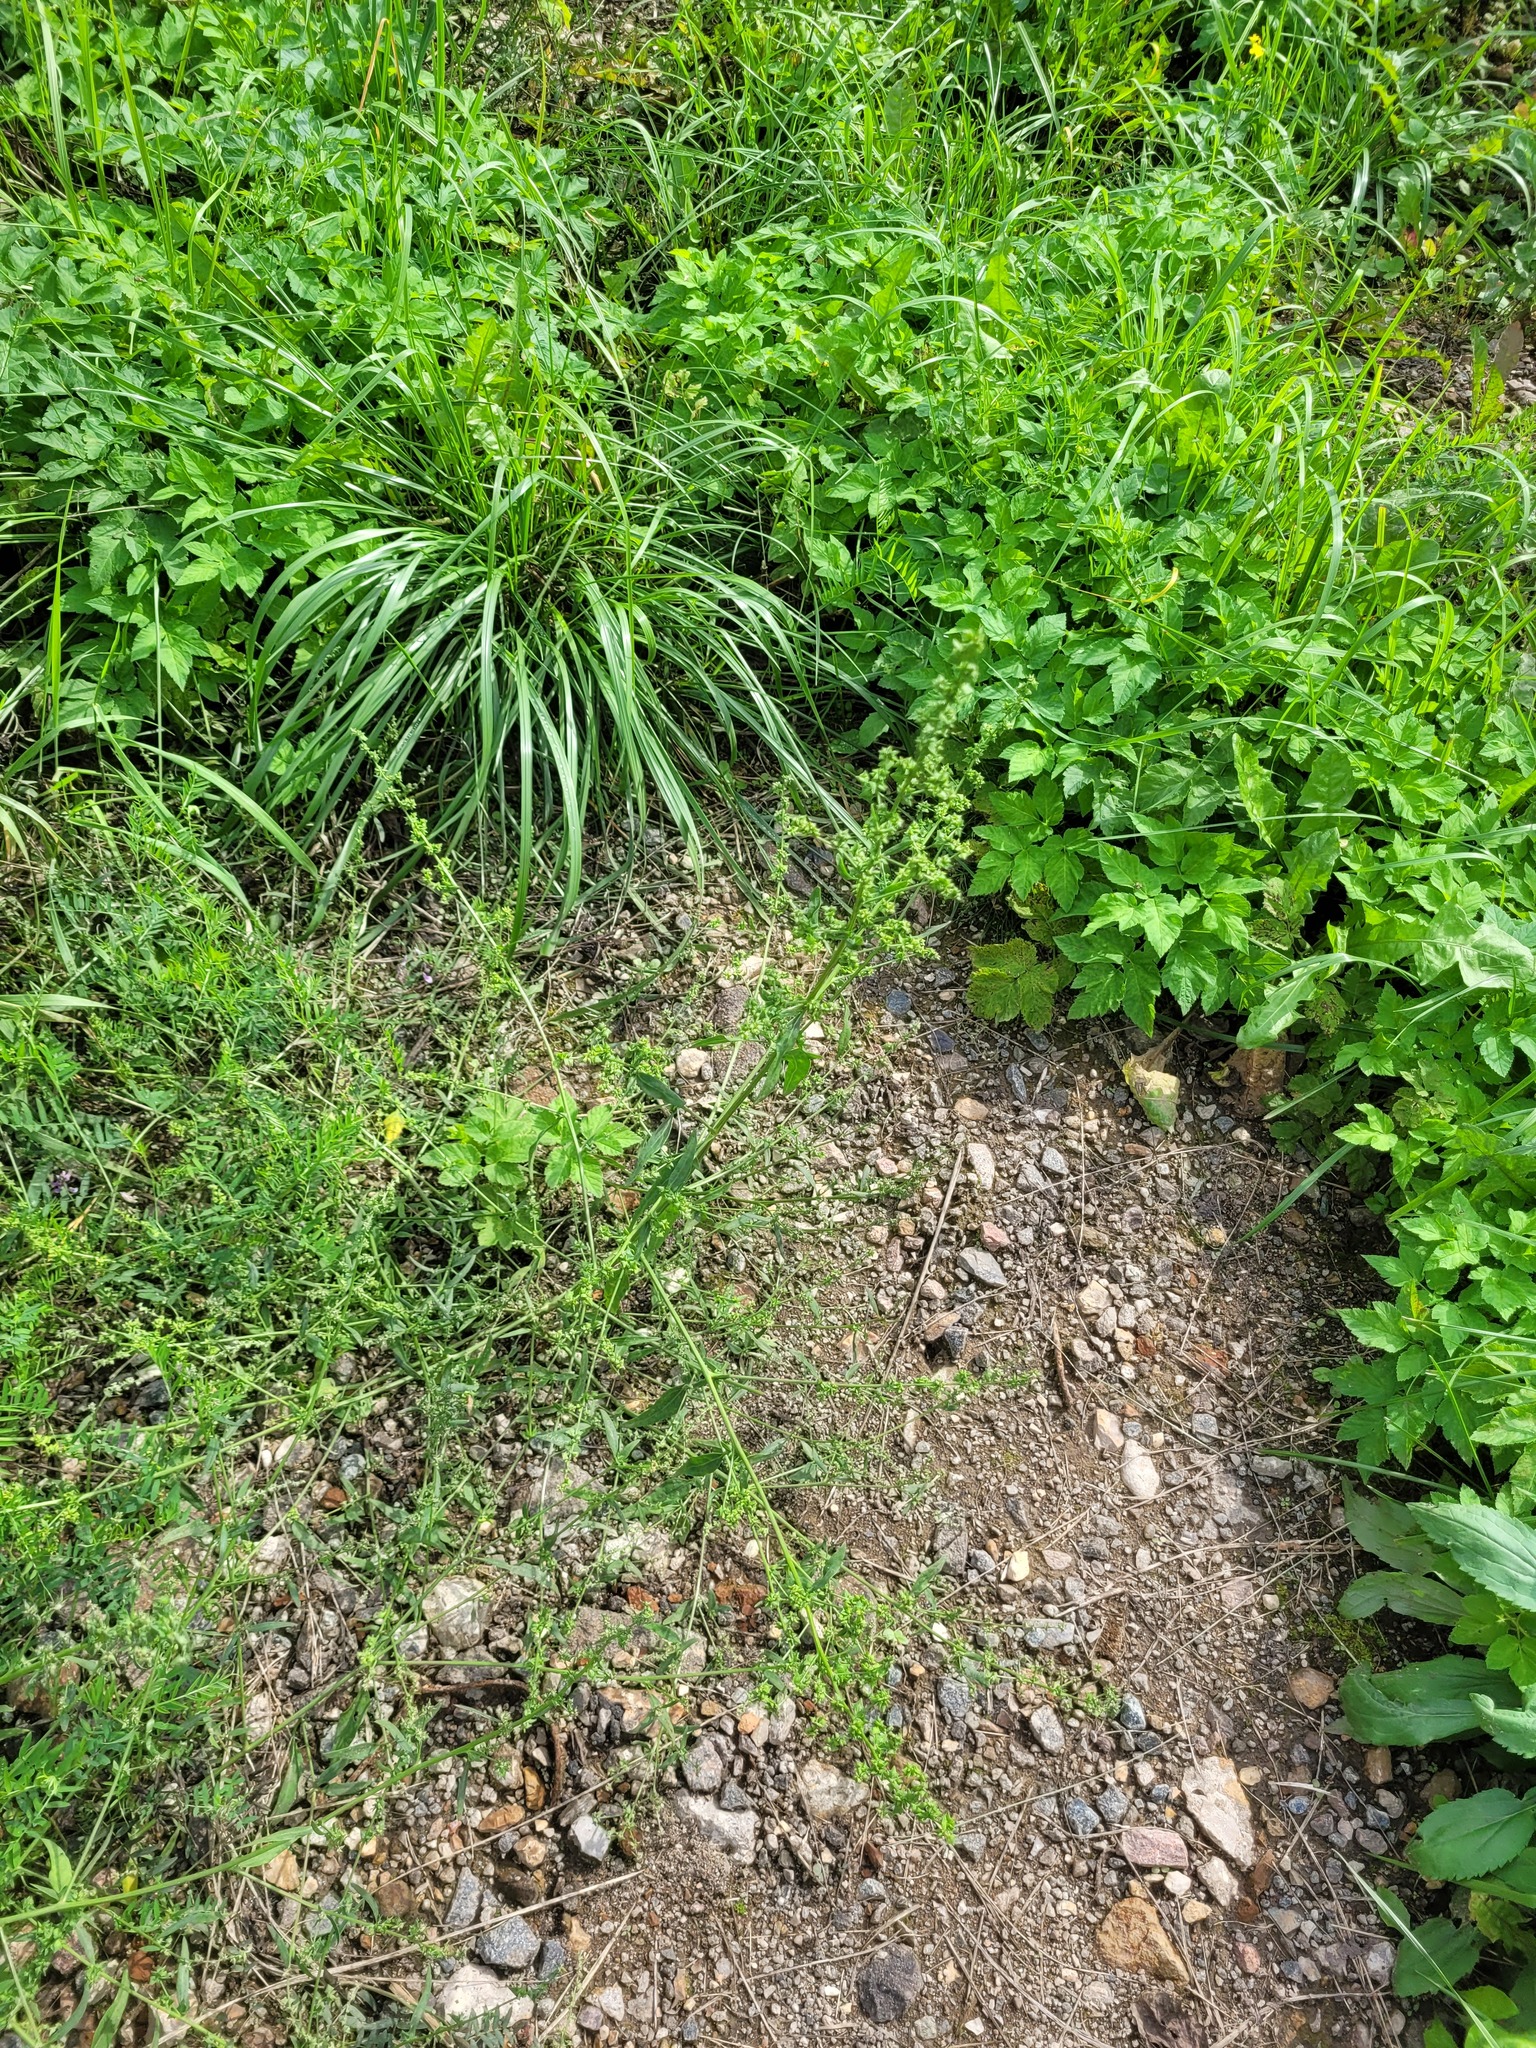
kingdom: Plantae
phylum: Tracheophyta
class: Magnoliopsida
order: Caryophyllales
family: Amaranthaceae
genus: Atriplex
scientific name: Atriplex patula
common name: Common orache
